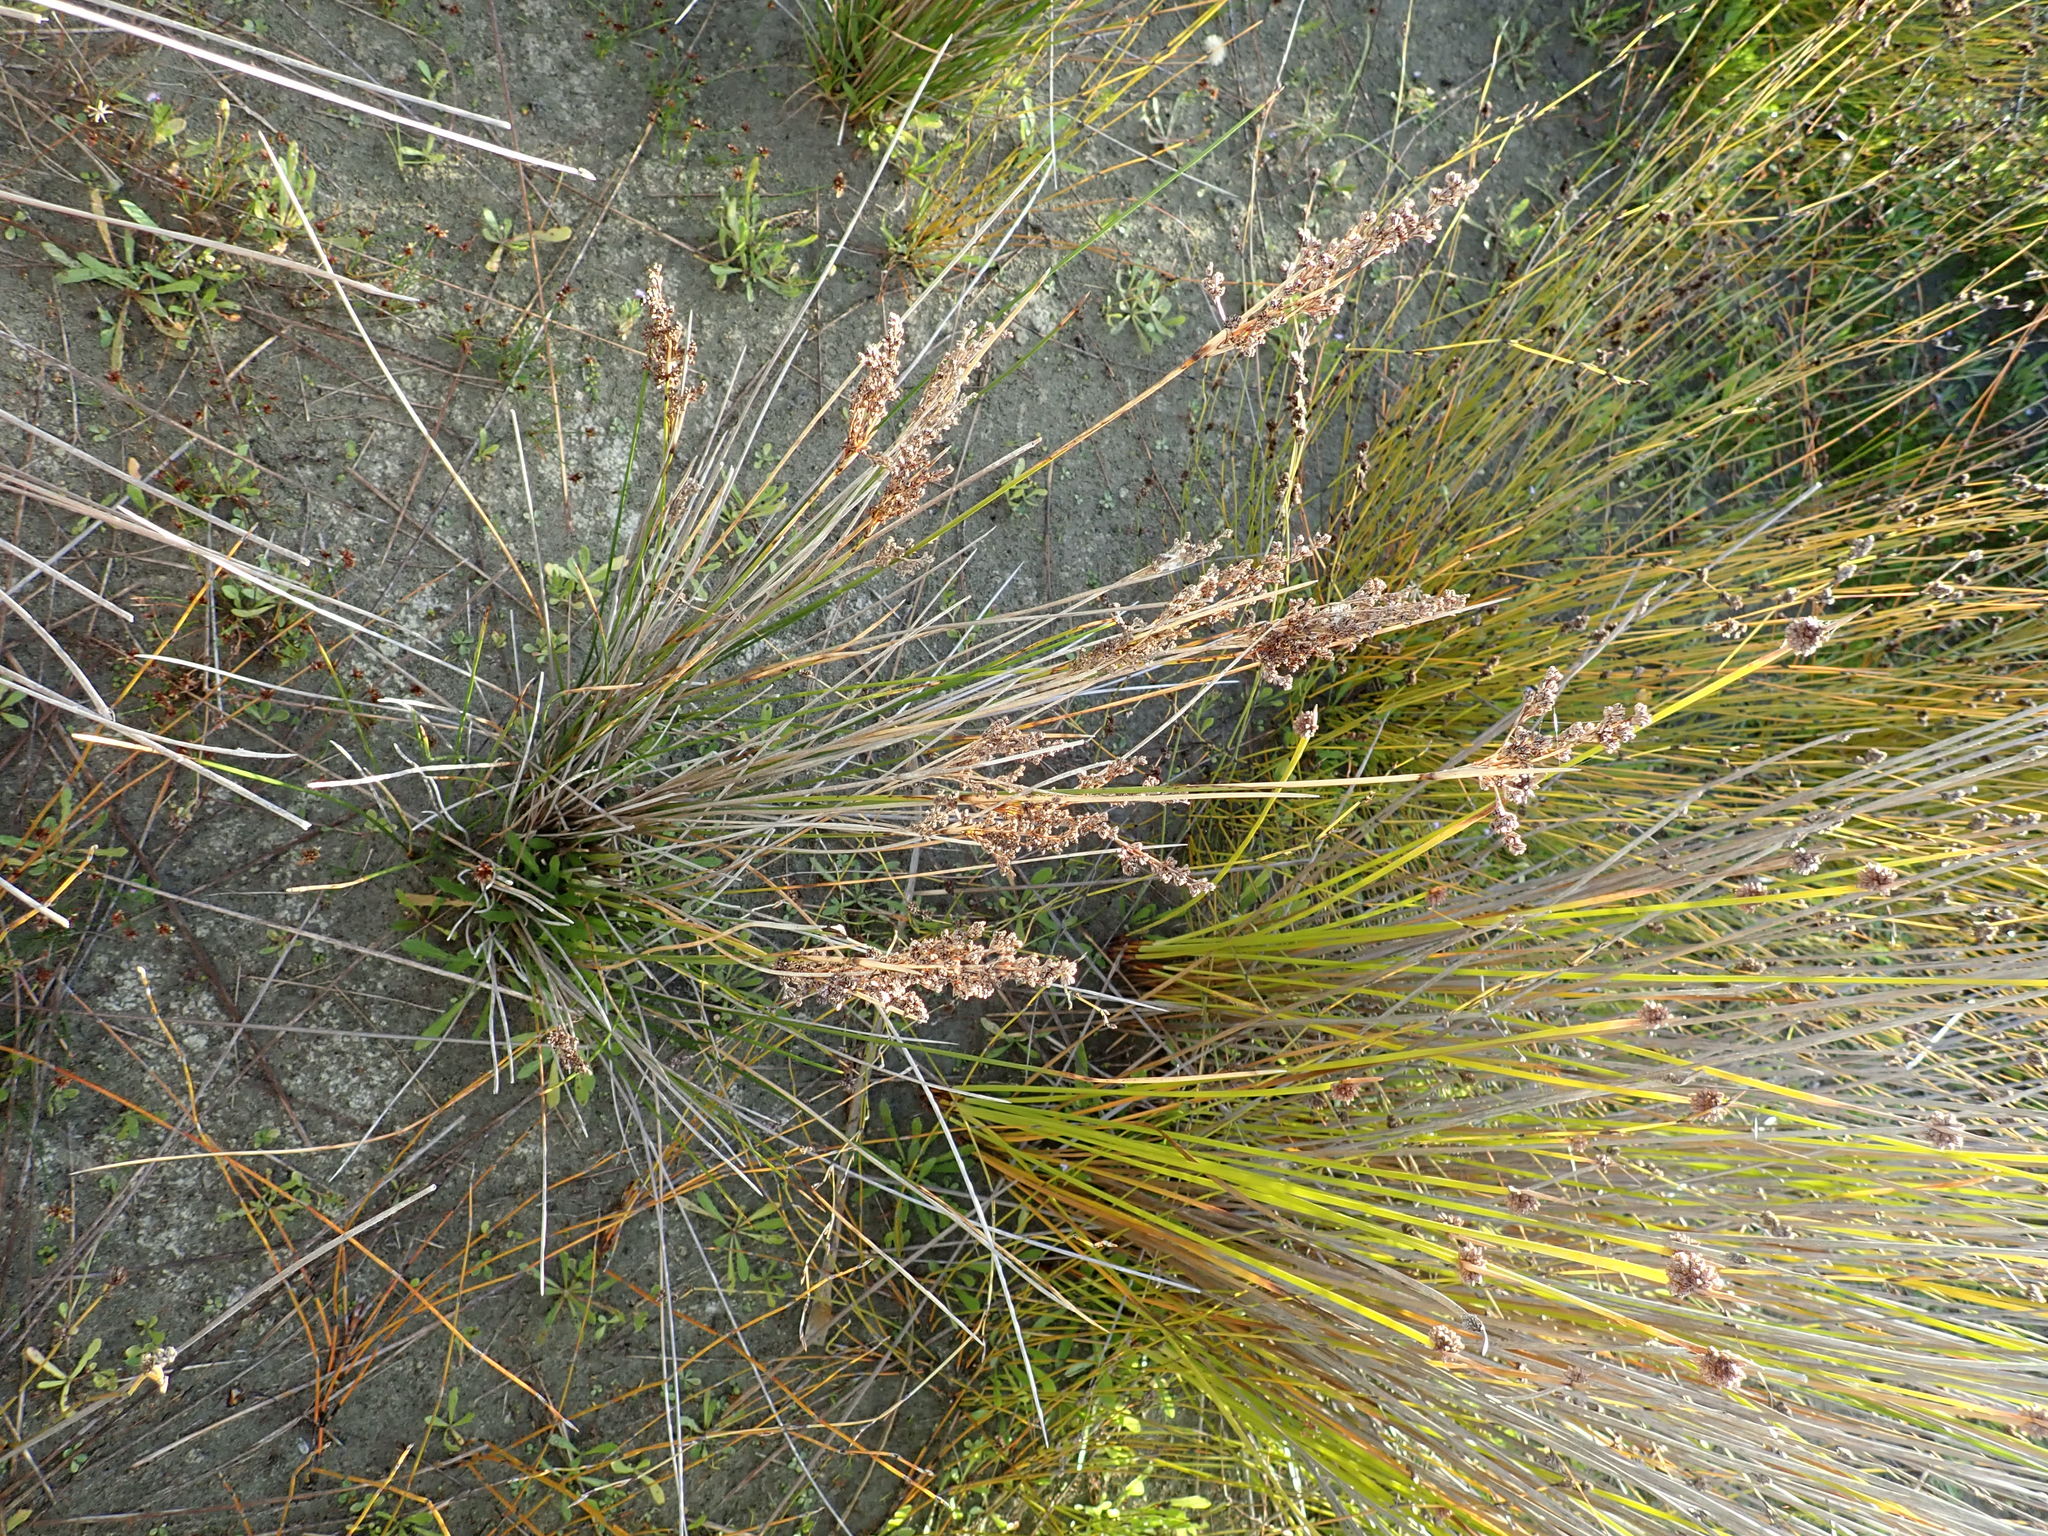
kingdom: Plantae
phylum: Tracheophyta
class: Liliopsida
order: Poales
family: Juncaceae
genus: Juncus
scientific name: Juncus kraussii
